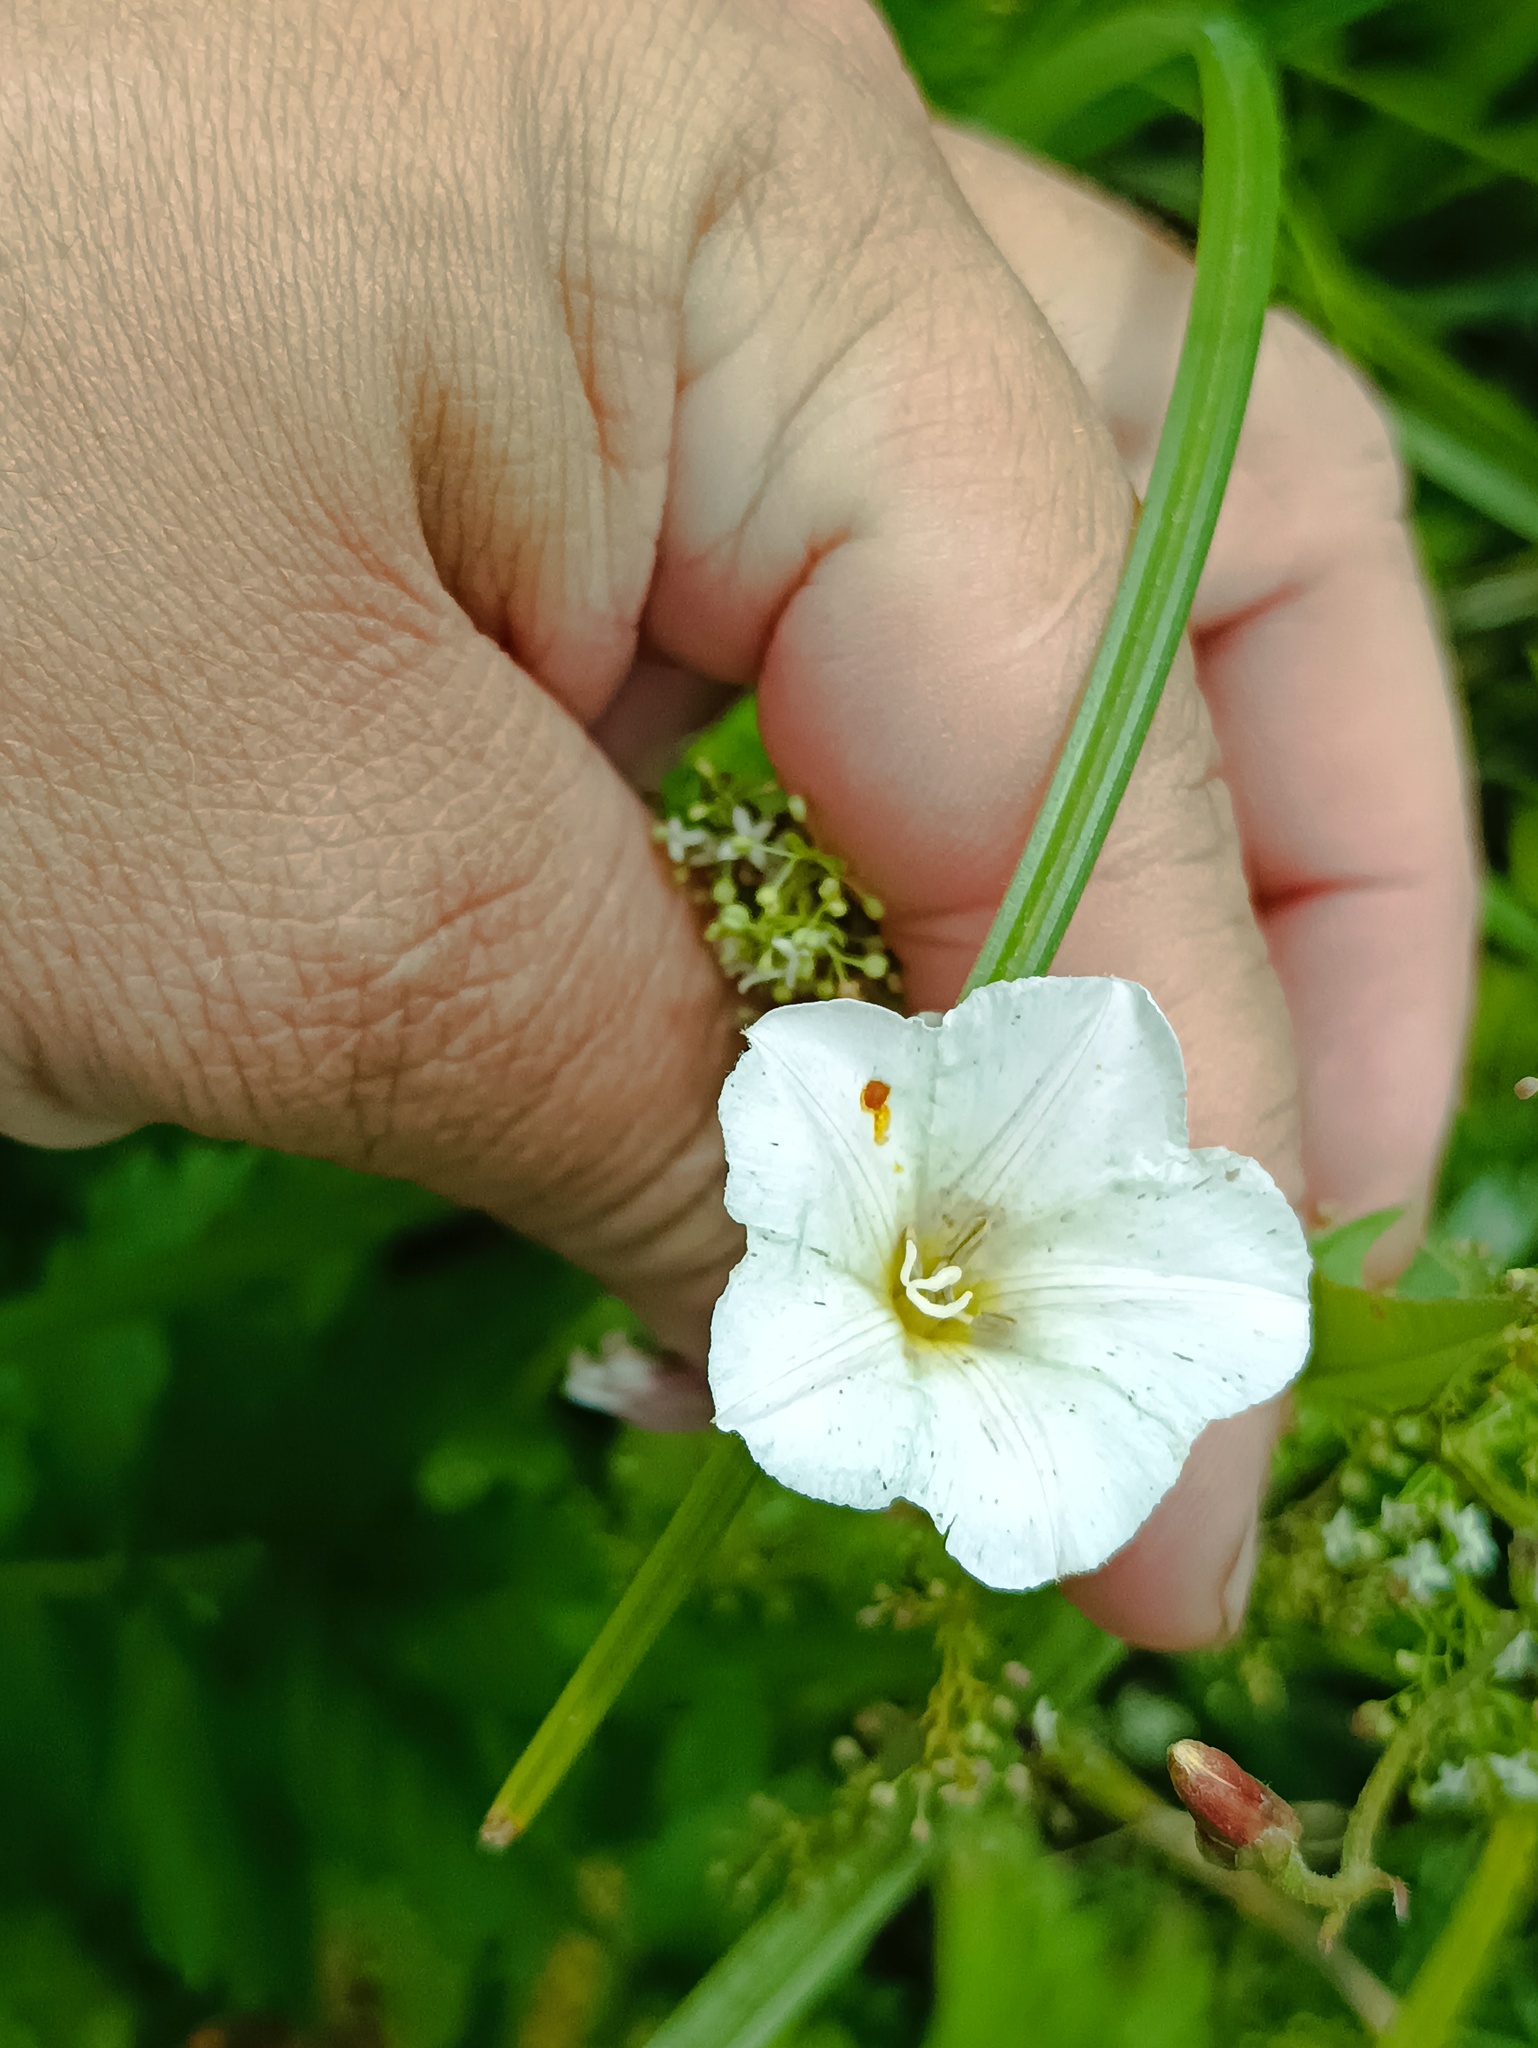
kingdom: Plantae
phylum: Tracheophyta
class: Magnoliopsida
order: Solanales
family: Convolvulaceae
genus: Convolvulus
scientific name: Convolvulus arvensis
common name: Field bindweed
